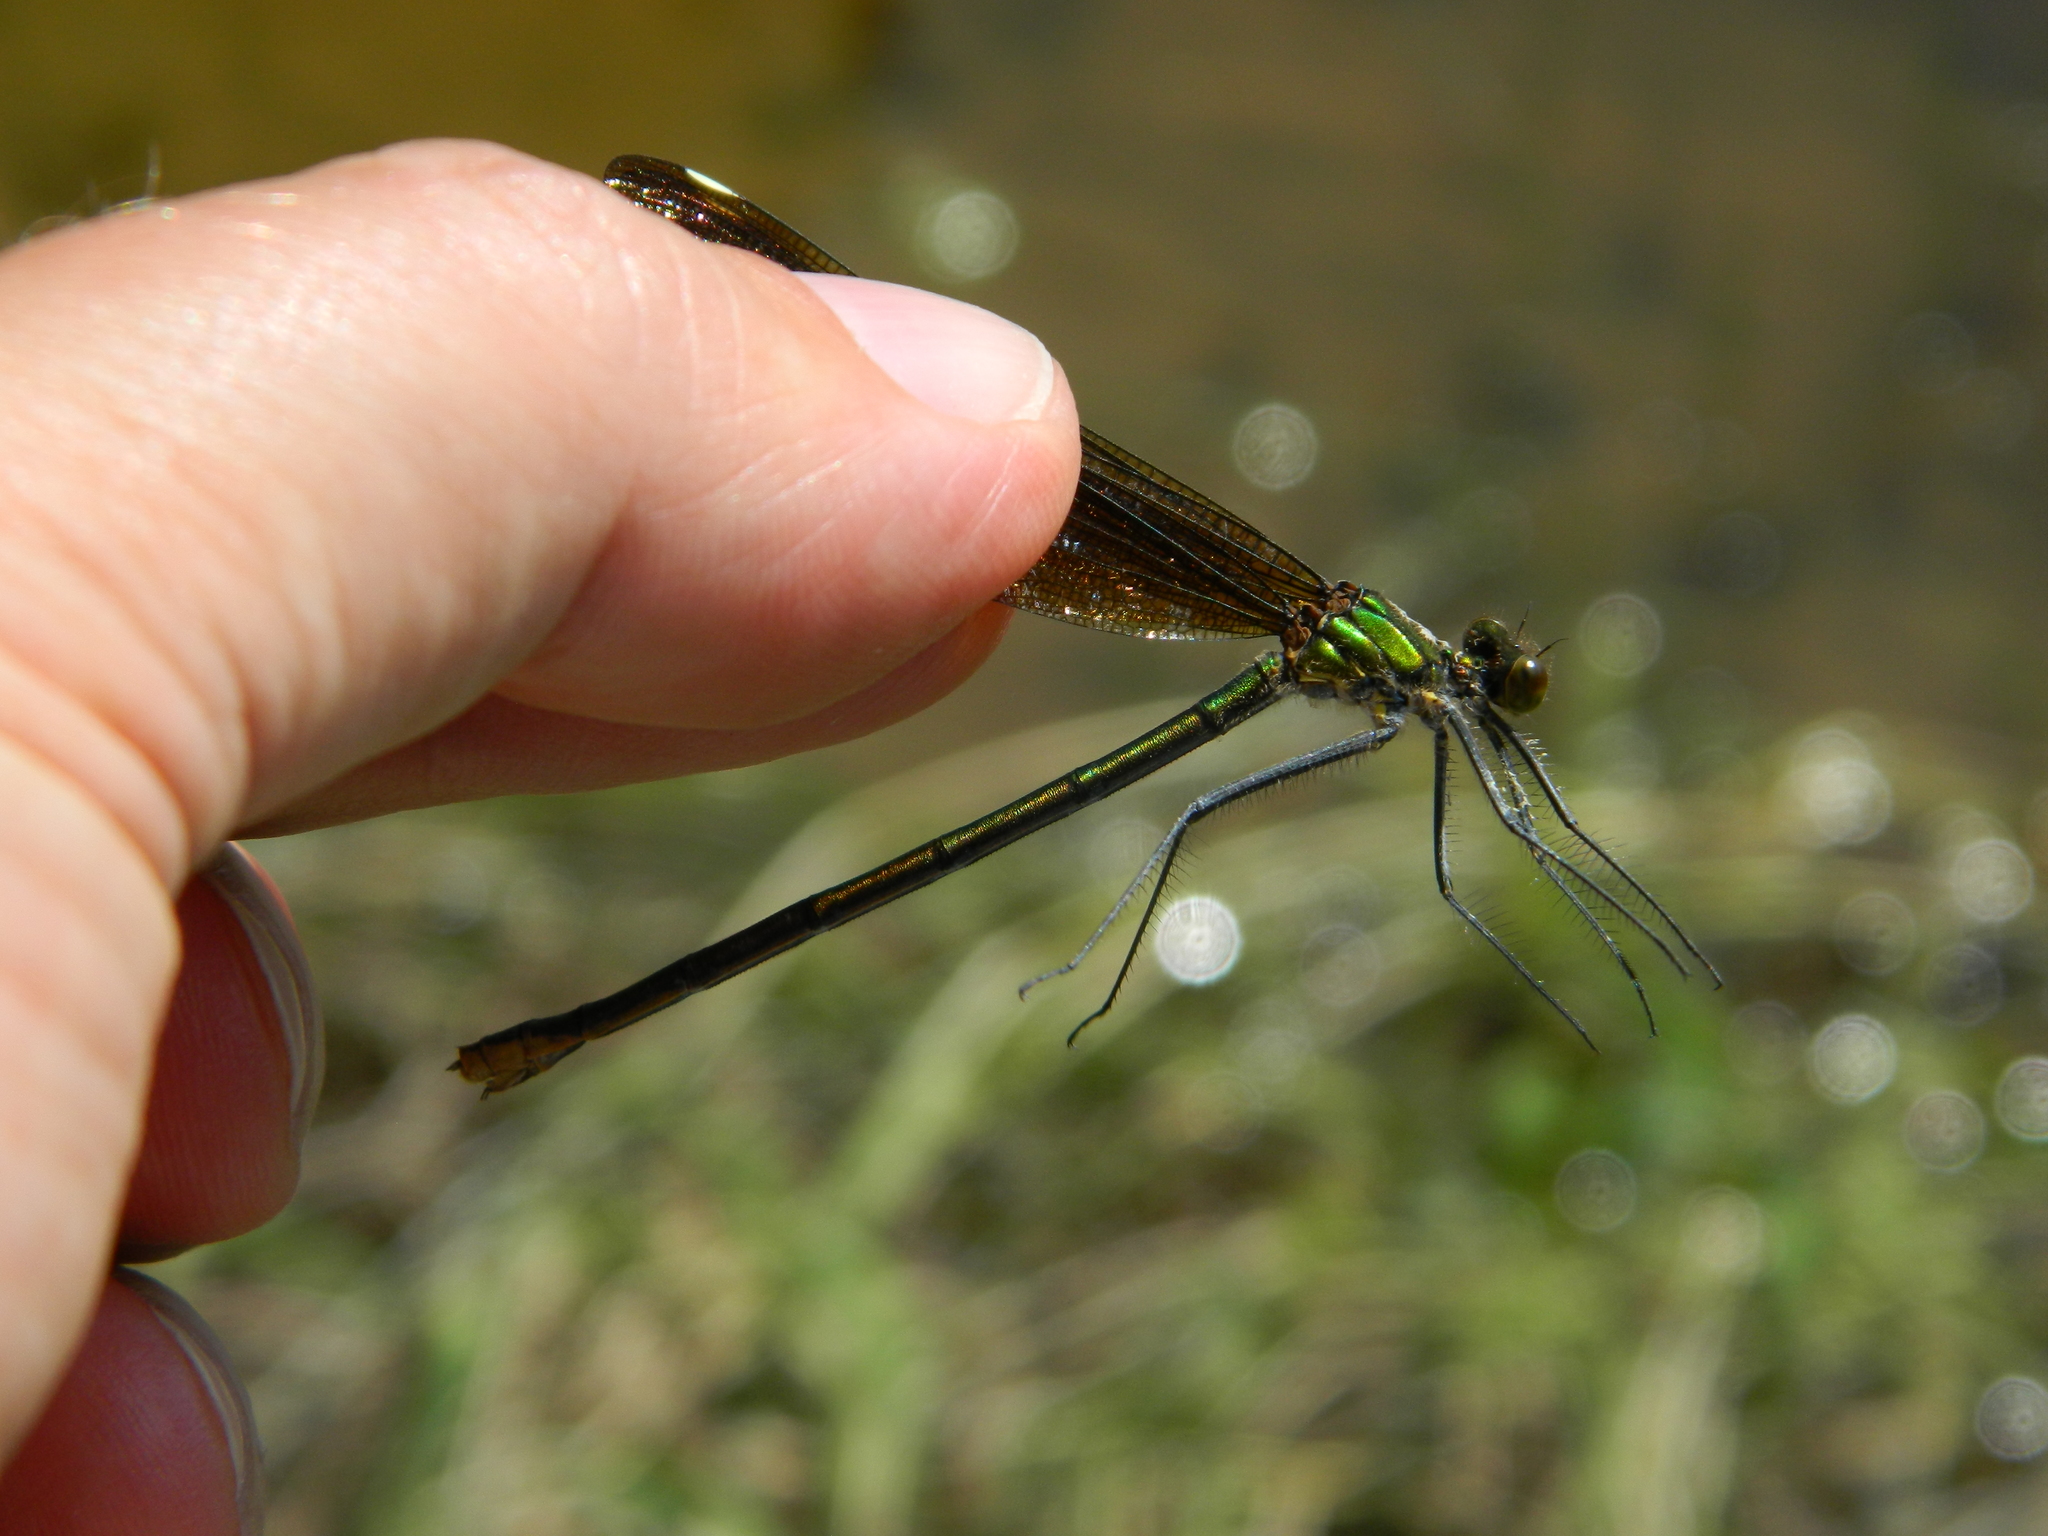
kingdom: Animalia
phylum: Arthropoda
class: Insecta
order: Odonata
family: Calopterygidae
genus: Calopteryx
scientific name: Calopteryx aequabilis
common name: River jewelwing
